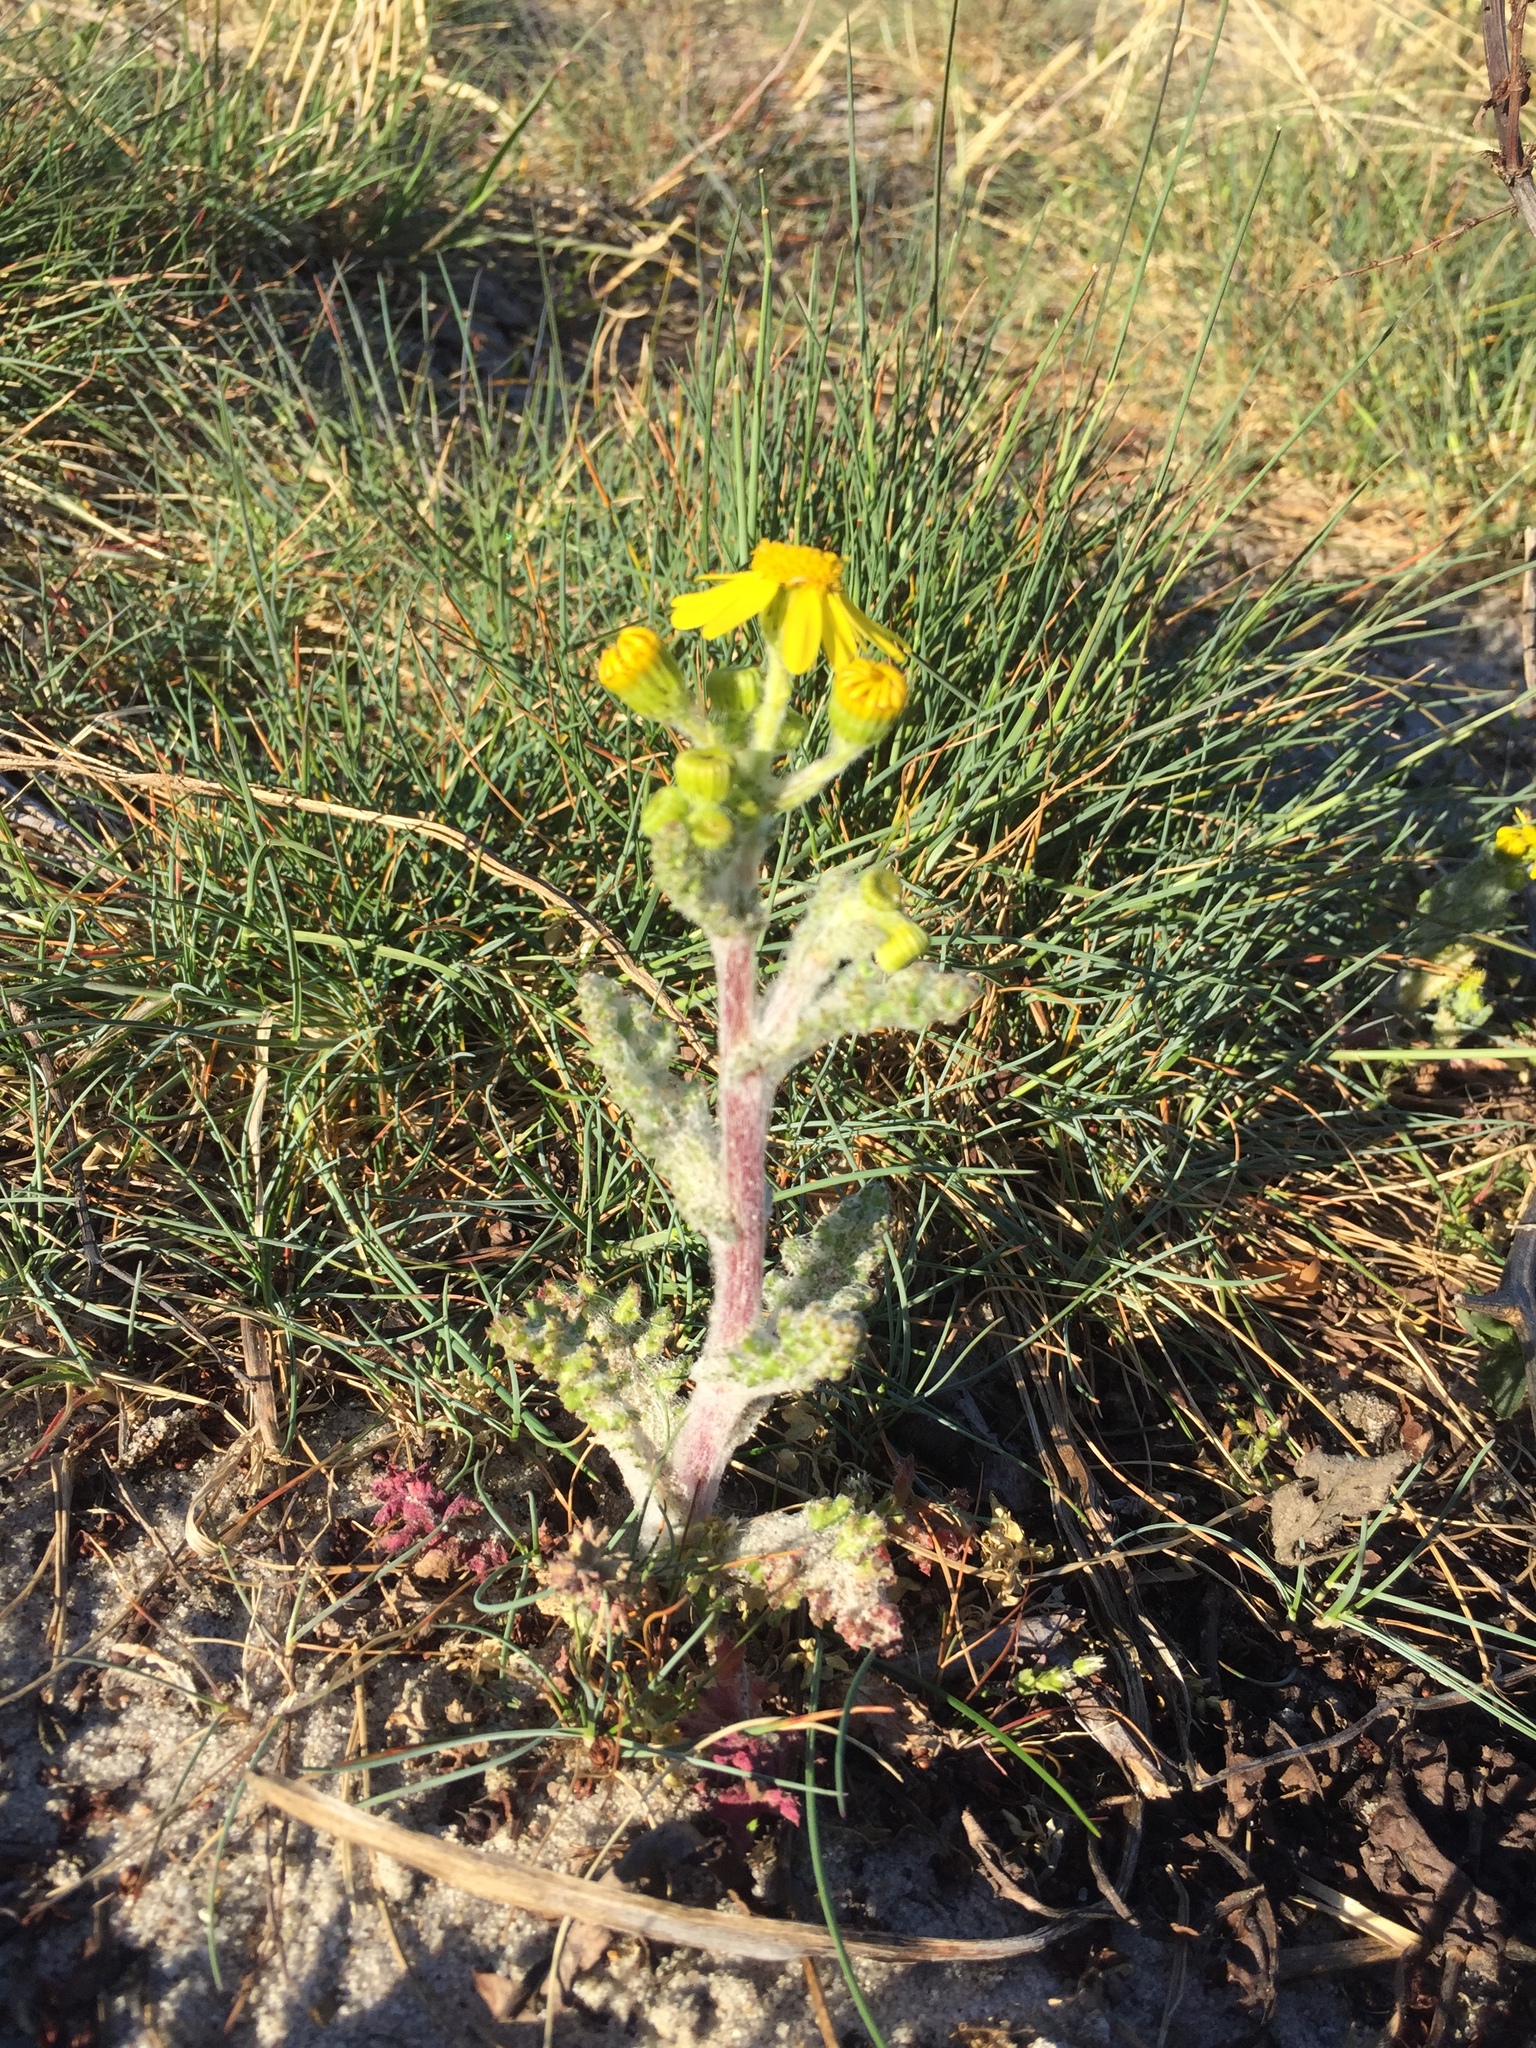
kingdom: Plantae
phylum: Tracheophyta
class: Magnoliopsida
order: Asterales
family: Asteraceae
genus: Senecio
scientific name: Senecio vernalis
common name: Eastern groundsel
